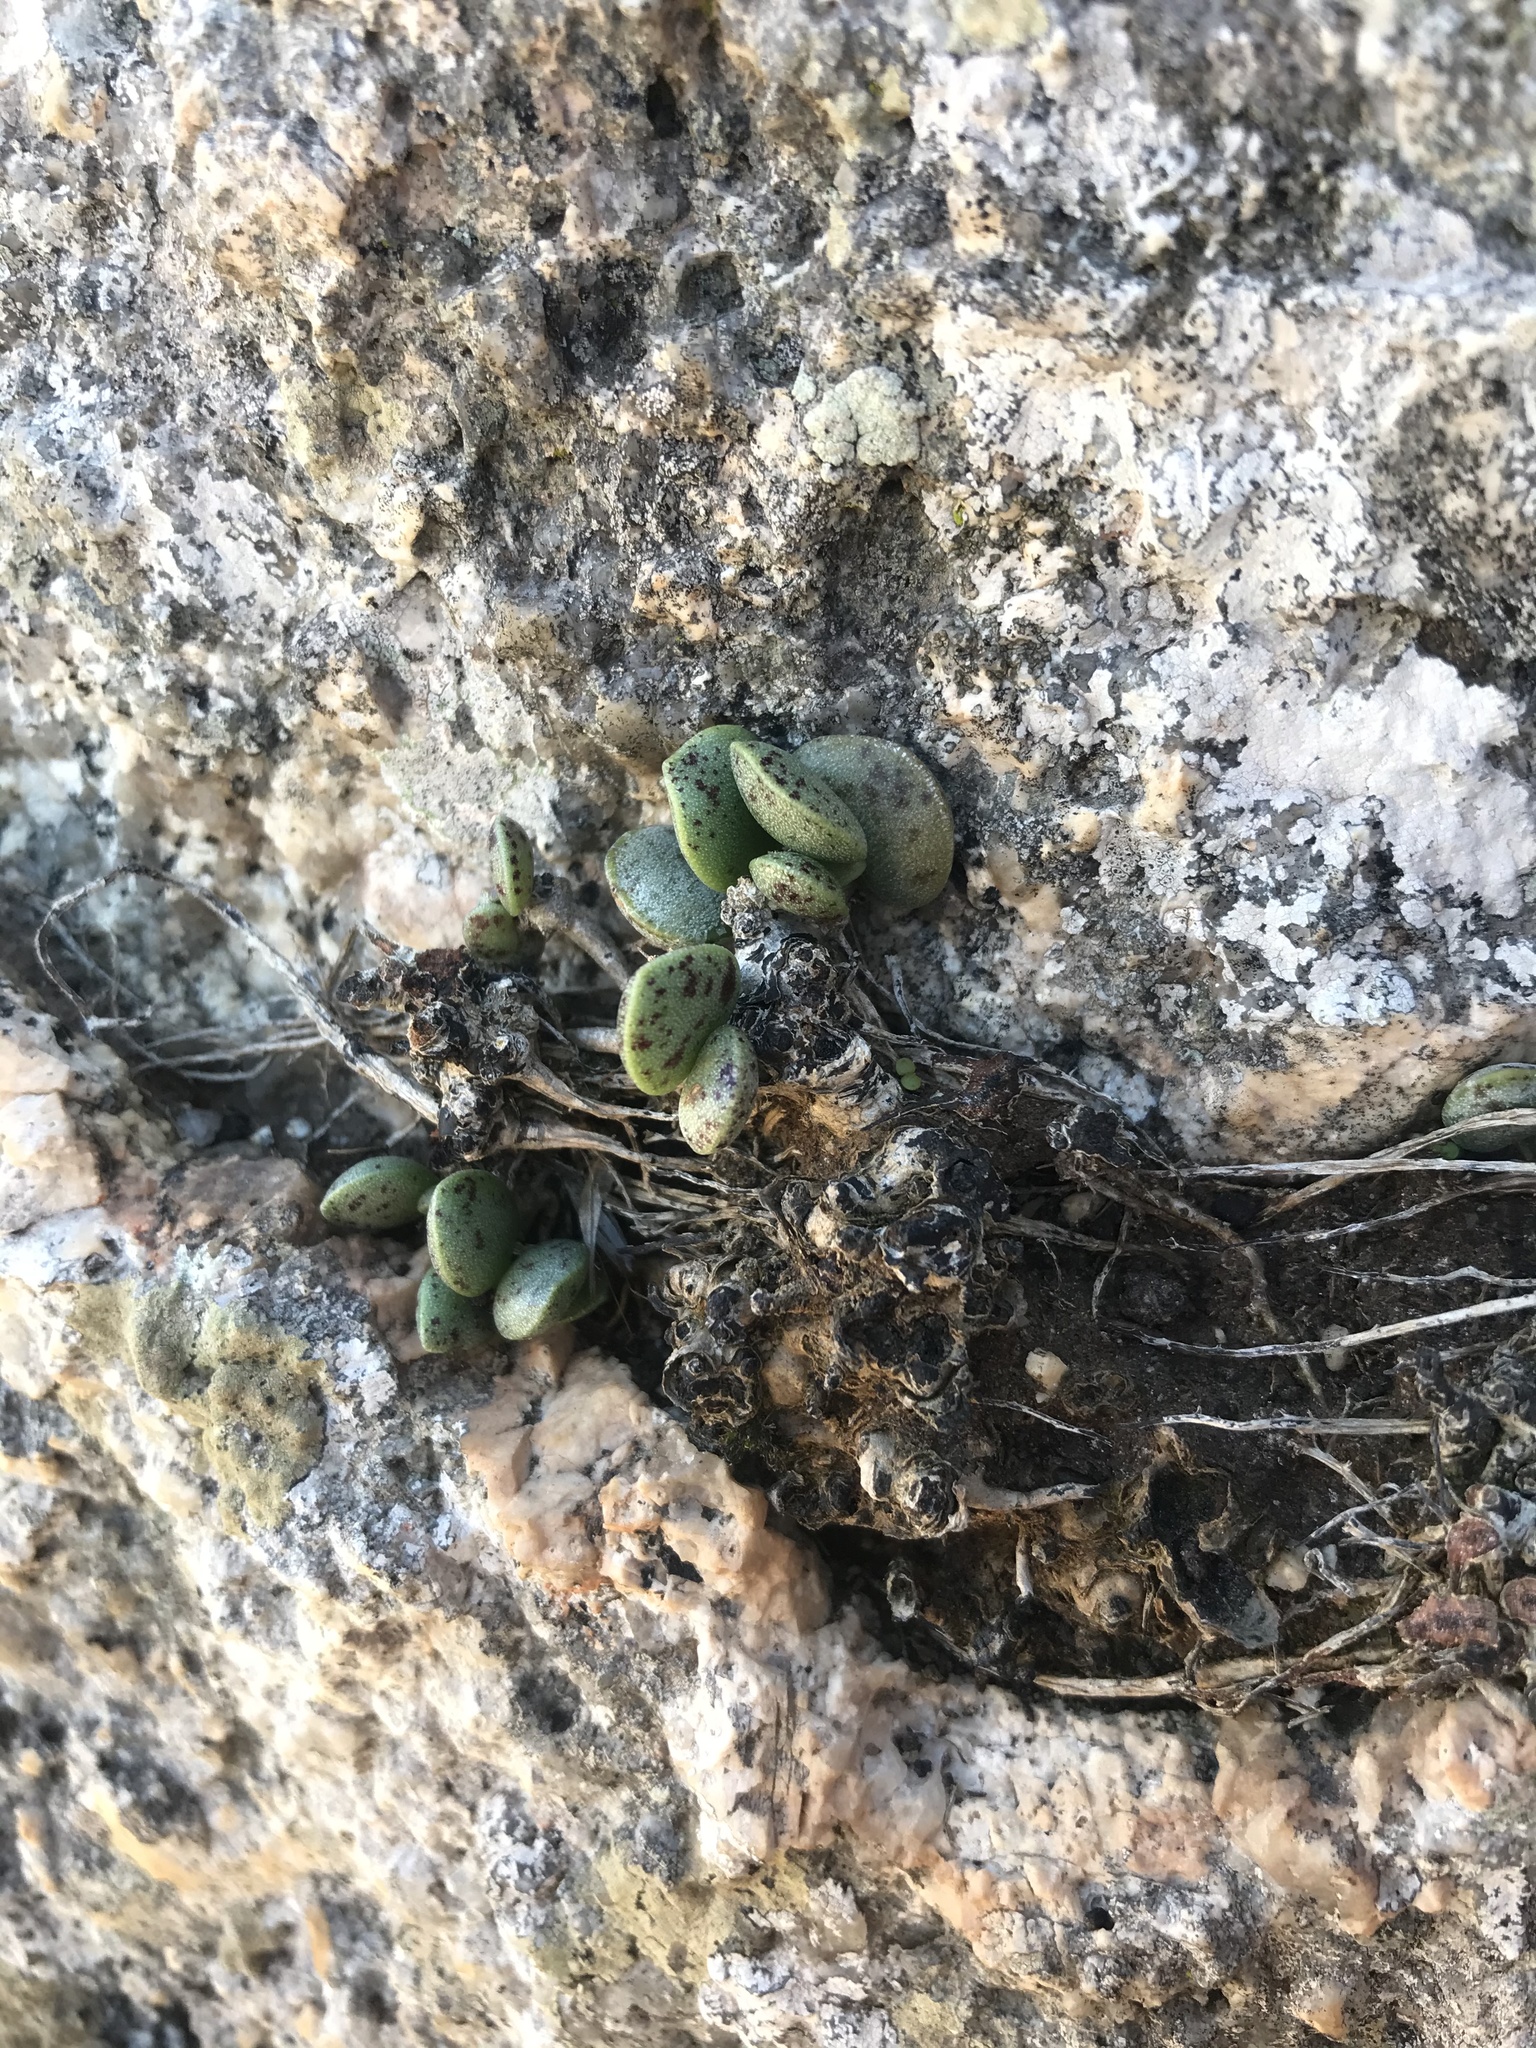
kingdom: Plantae
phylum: Tracheophyta
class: Magnoliopsida
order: Saxifragales
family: Crassulaceae
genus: Adromischus
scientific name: Adromischus hemisphaericus
